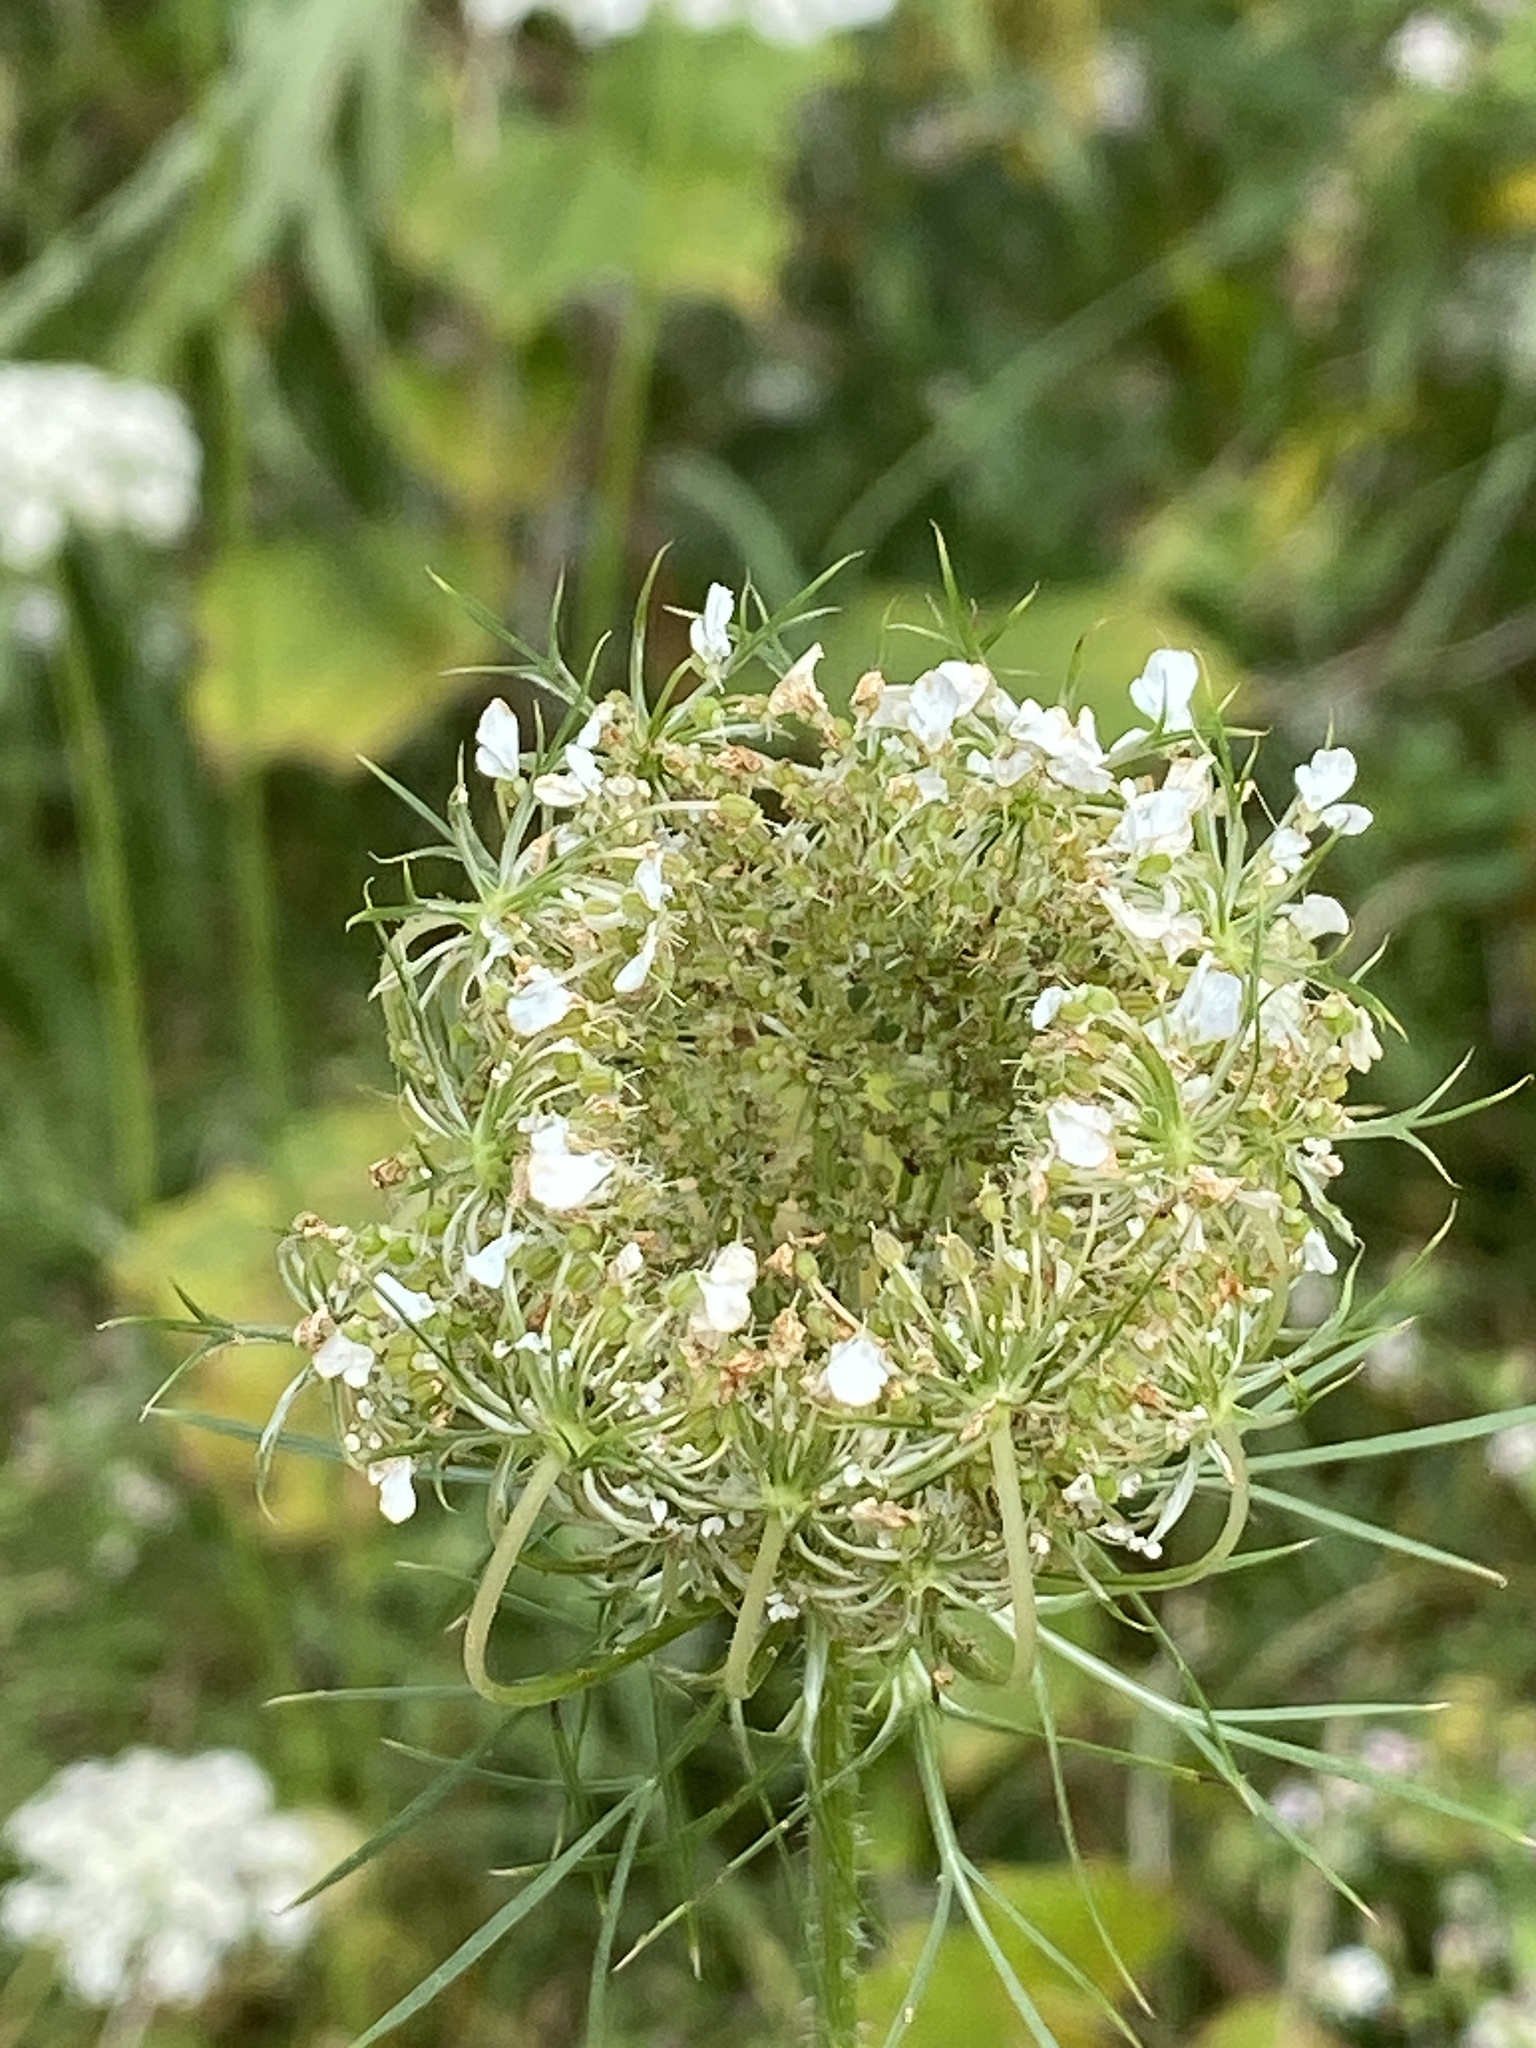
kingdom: Plantae
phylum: Tracheophyta
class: Magnoliopsida
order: Apiales
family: Apiaceae
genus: Daucus
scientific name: Daucus carota
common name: Wild carrot
